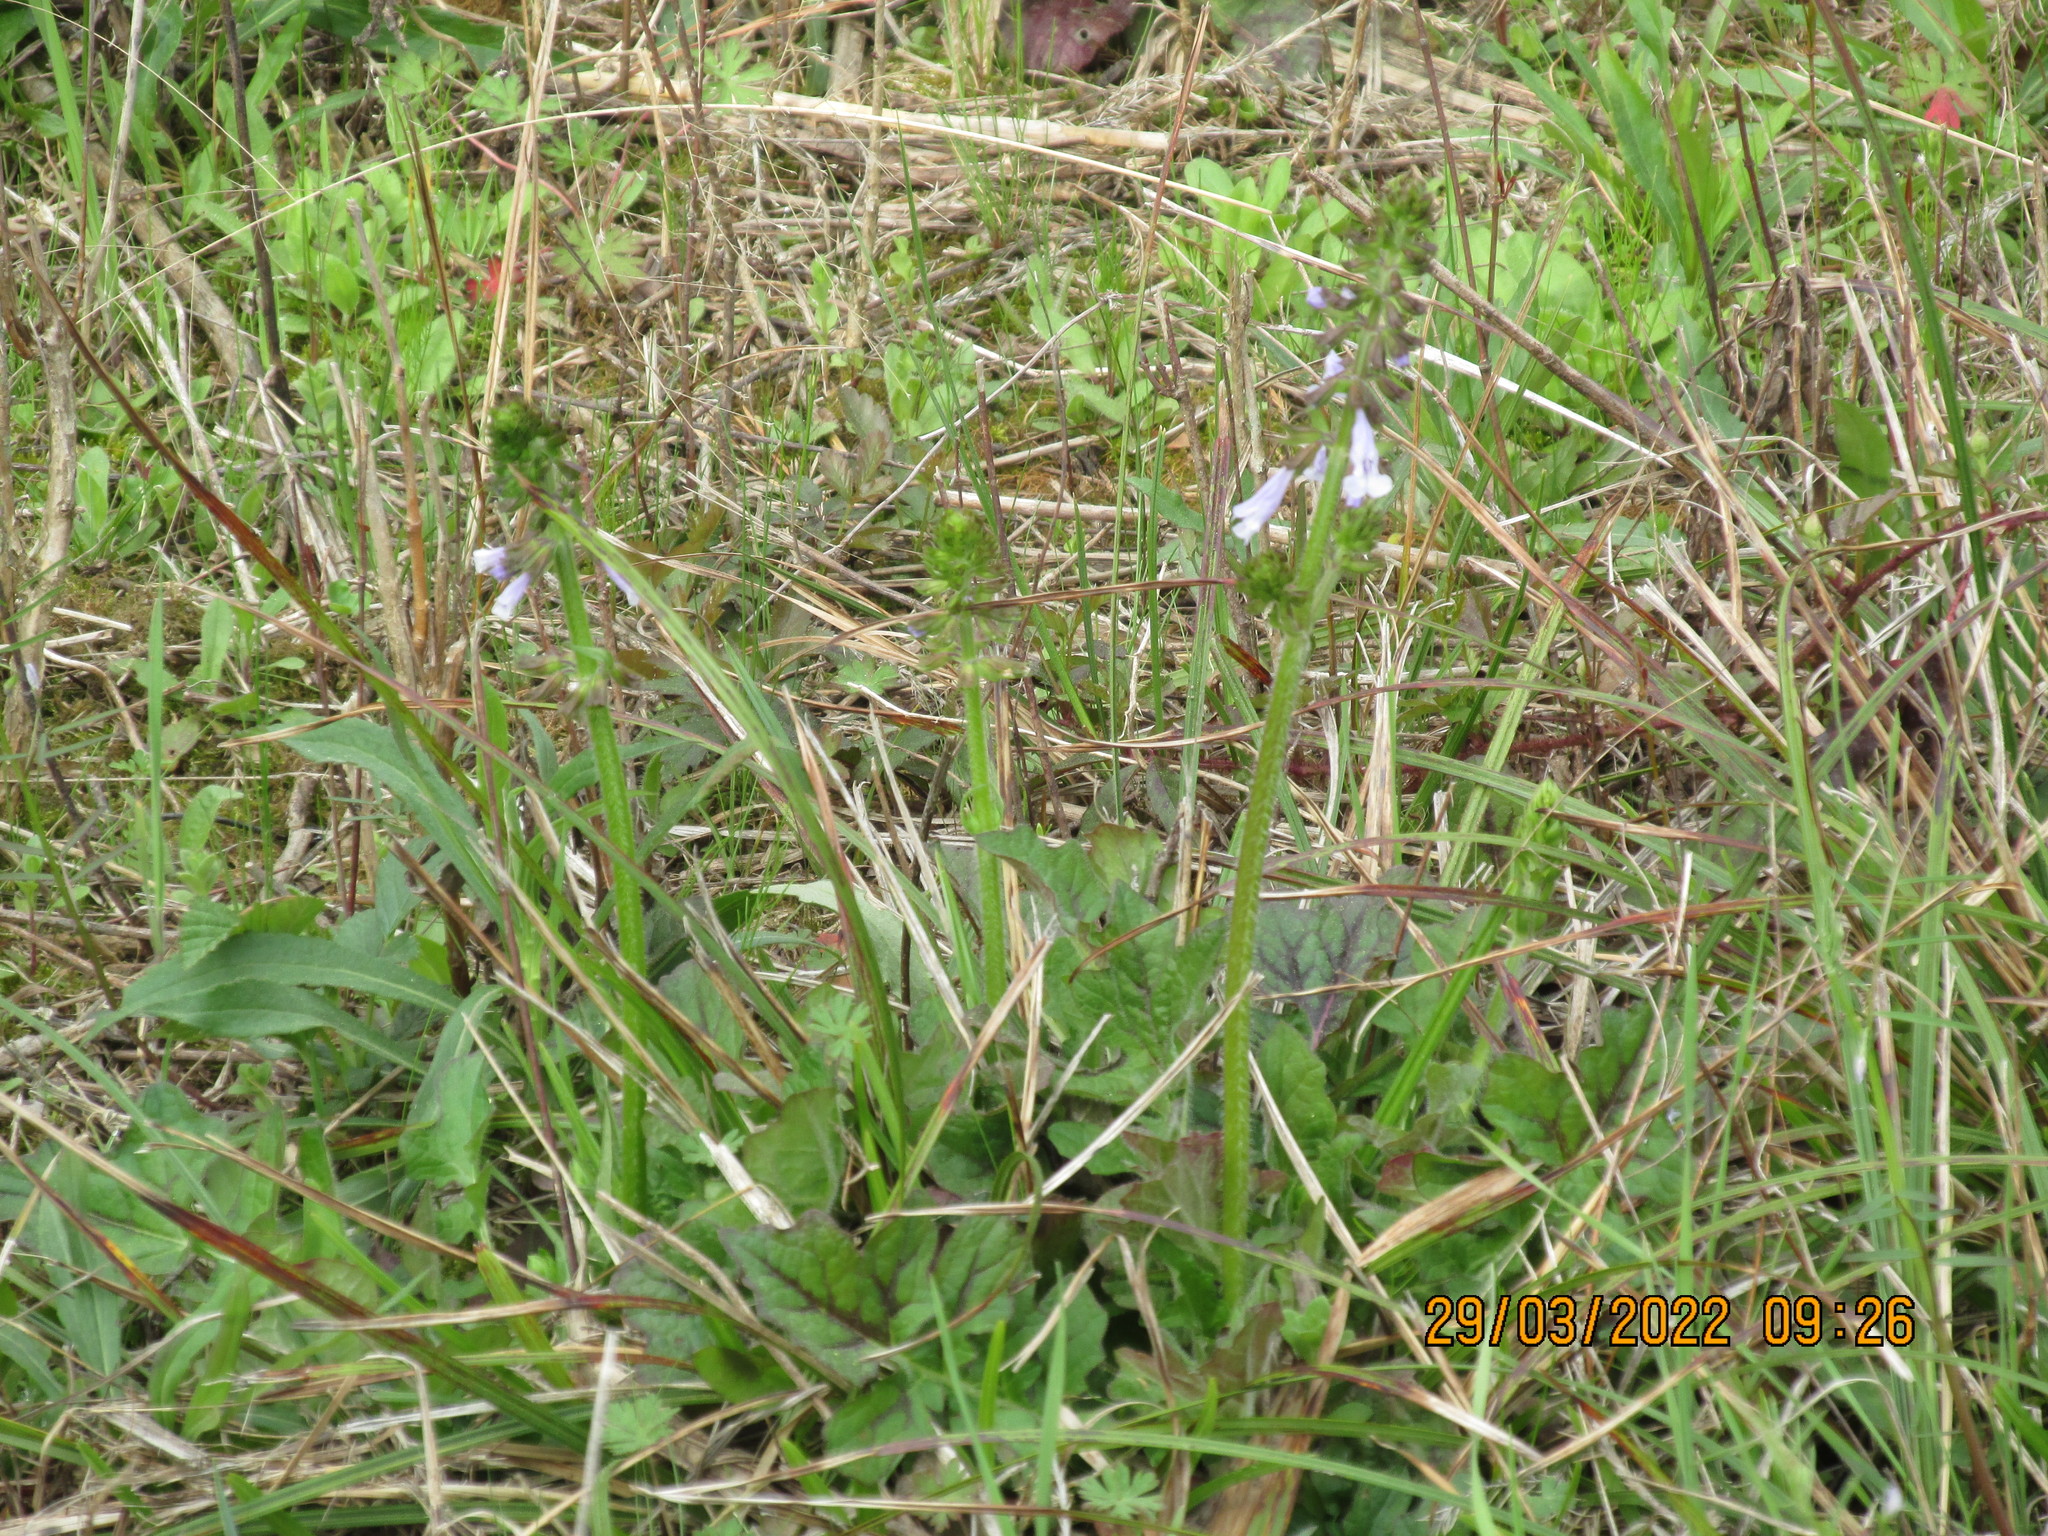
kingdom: Plantae
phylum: Tracheophyta
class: Magnoliopsida
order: Lamiales
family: Lamiaceae
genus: Salvia
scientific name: Salvia lyrata
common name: Cancerweed
